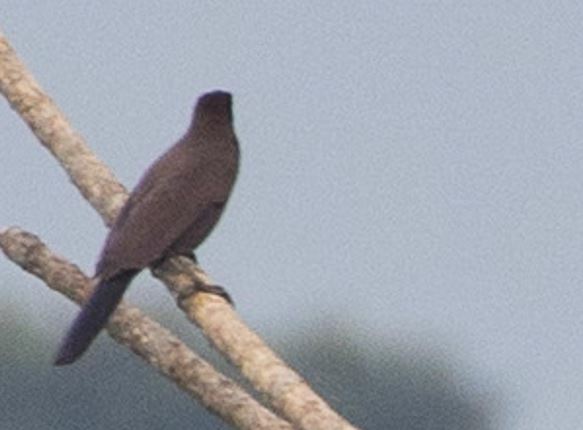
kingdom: Animalia
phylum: Chordata
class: Aves
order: Passeriformes
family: Corvidae
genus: Cyanocorax
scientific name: Cyanocorax cyanomelas
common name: Purplish jay
